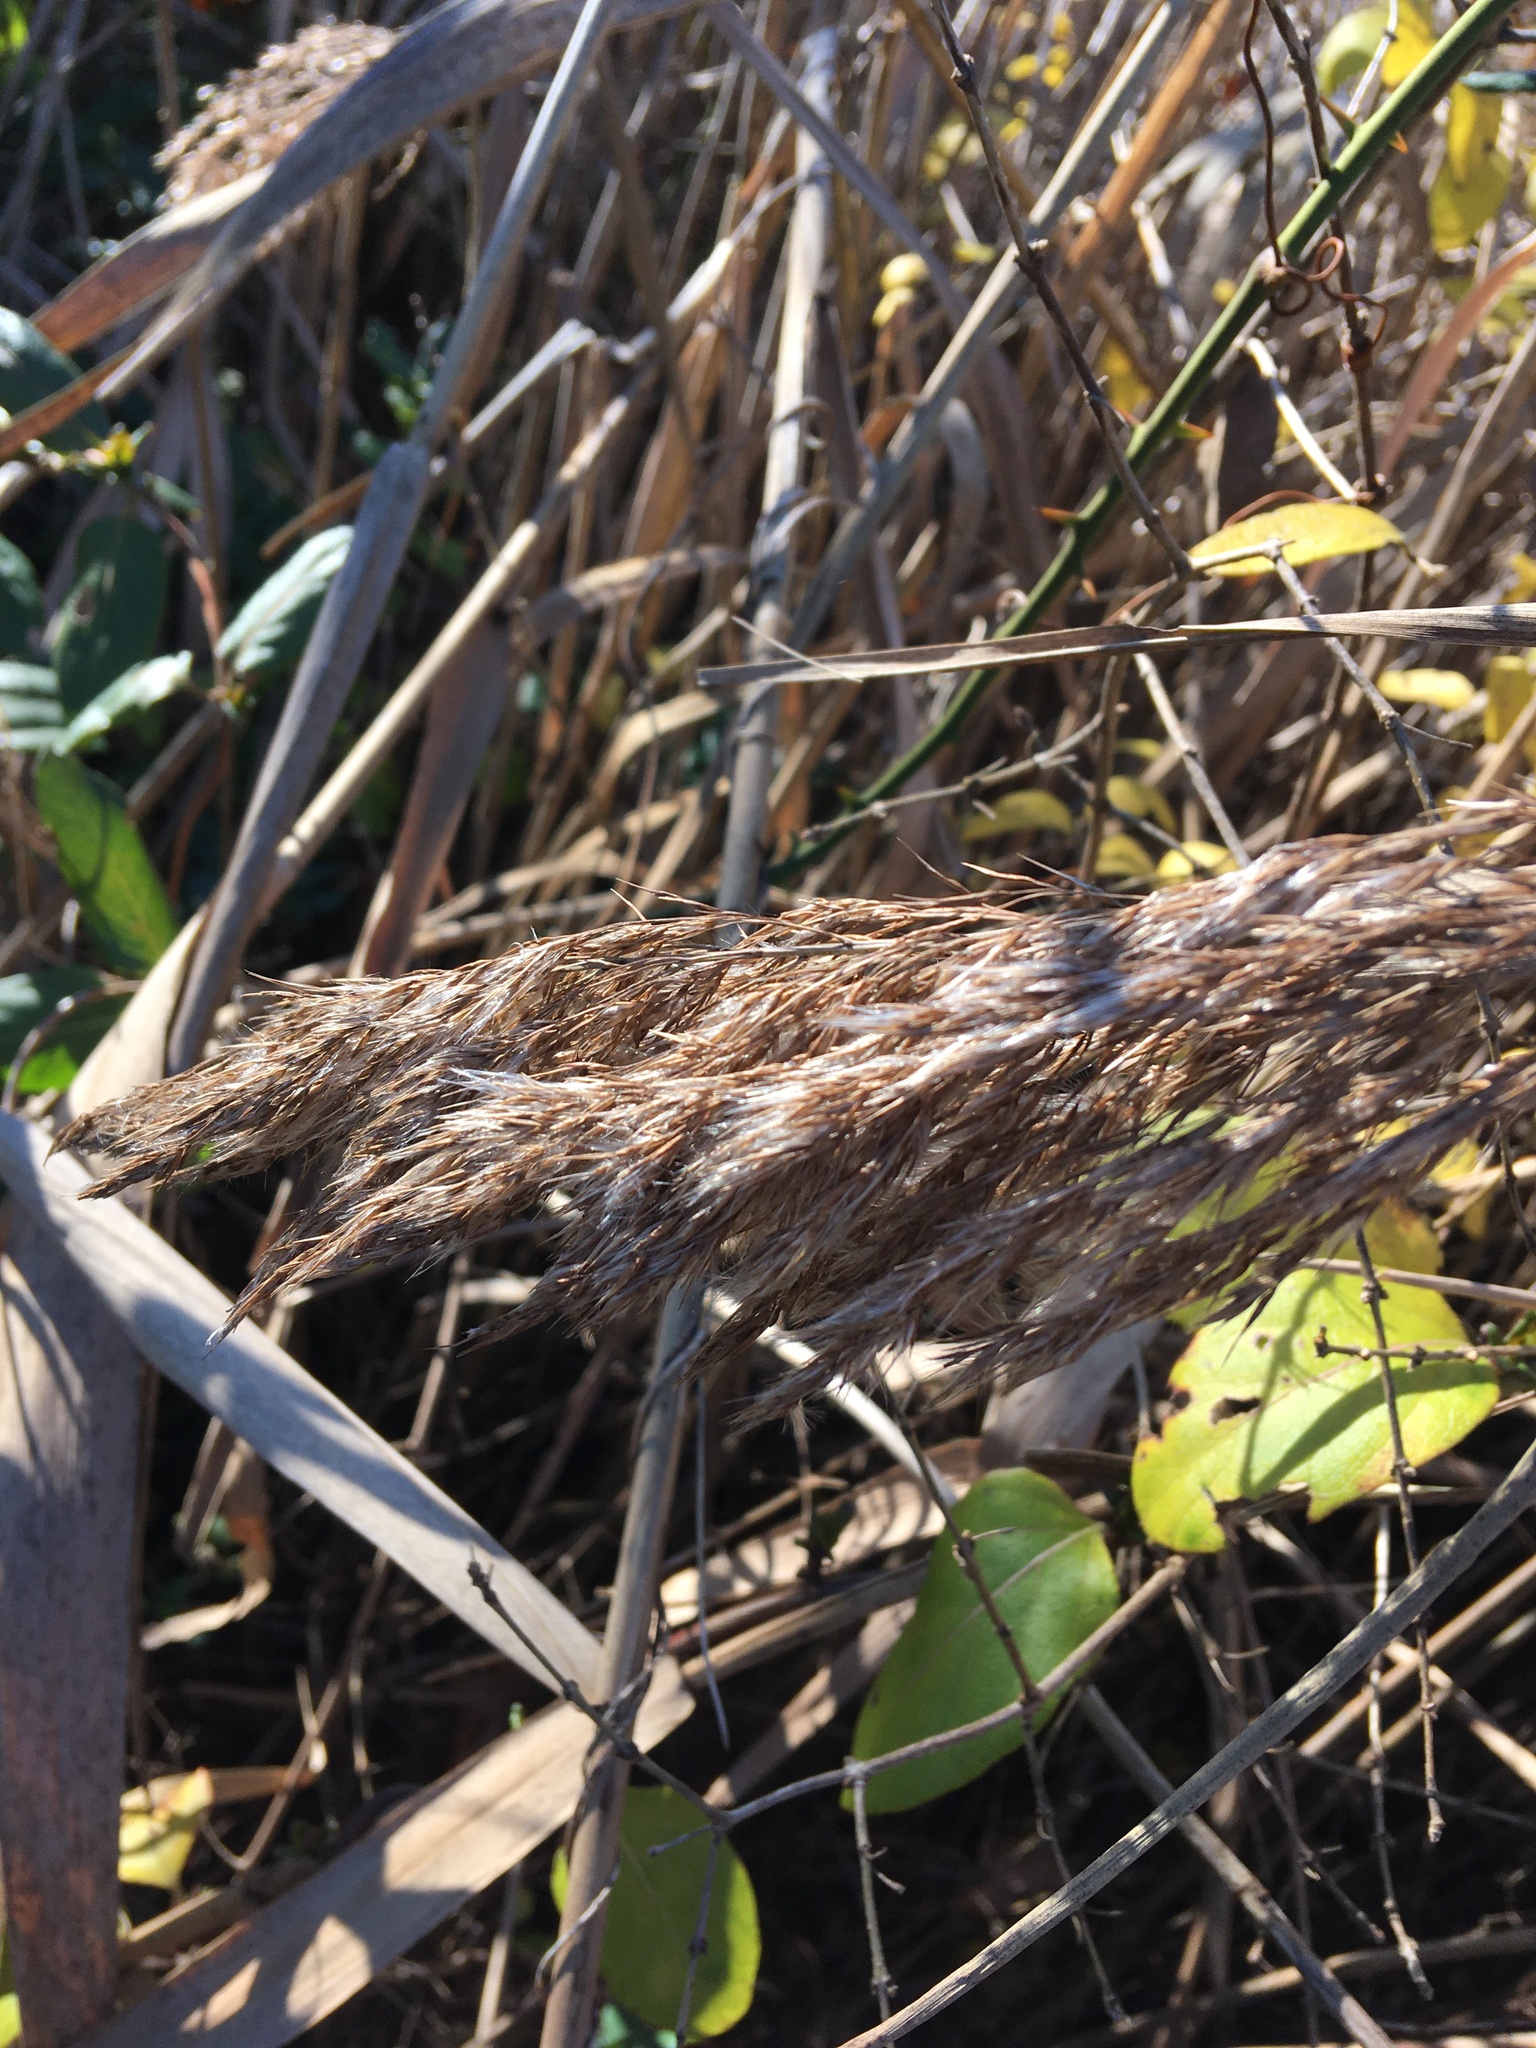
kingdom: Plantae
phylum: Tracheophyta
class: Liliopsida
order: Poales
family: Poaceae
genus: Phragmites
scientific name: Phragmites australis
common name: Common reed
